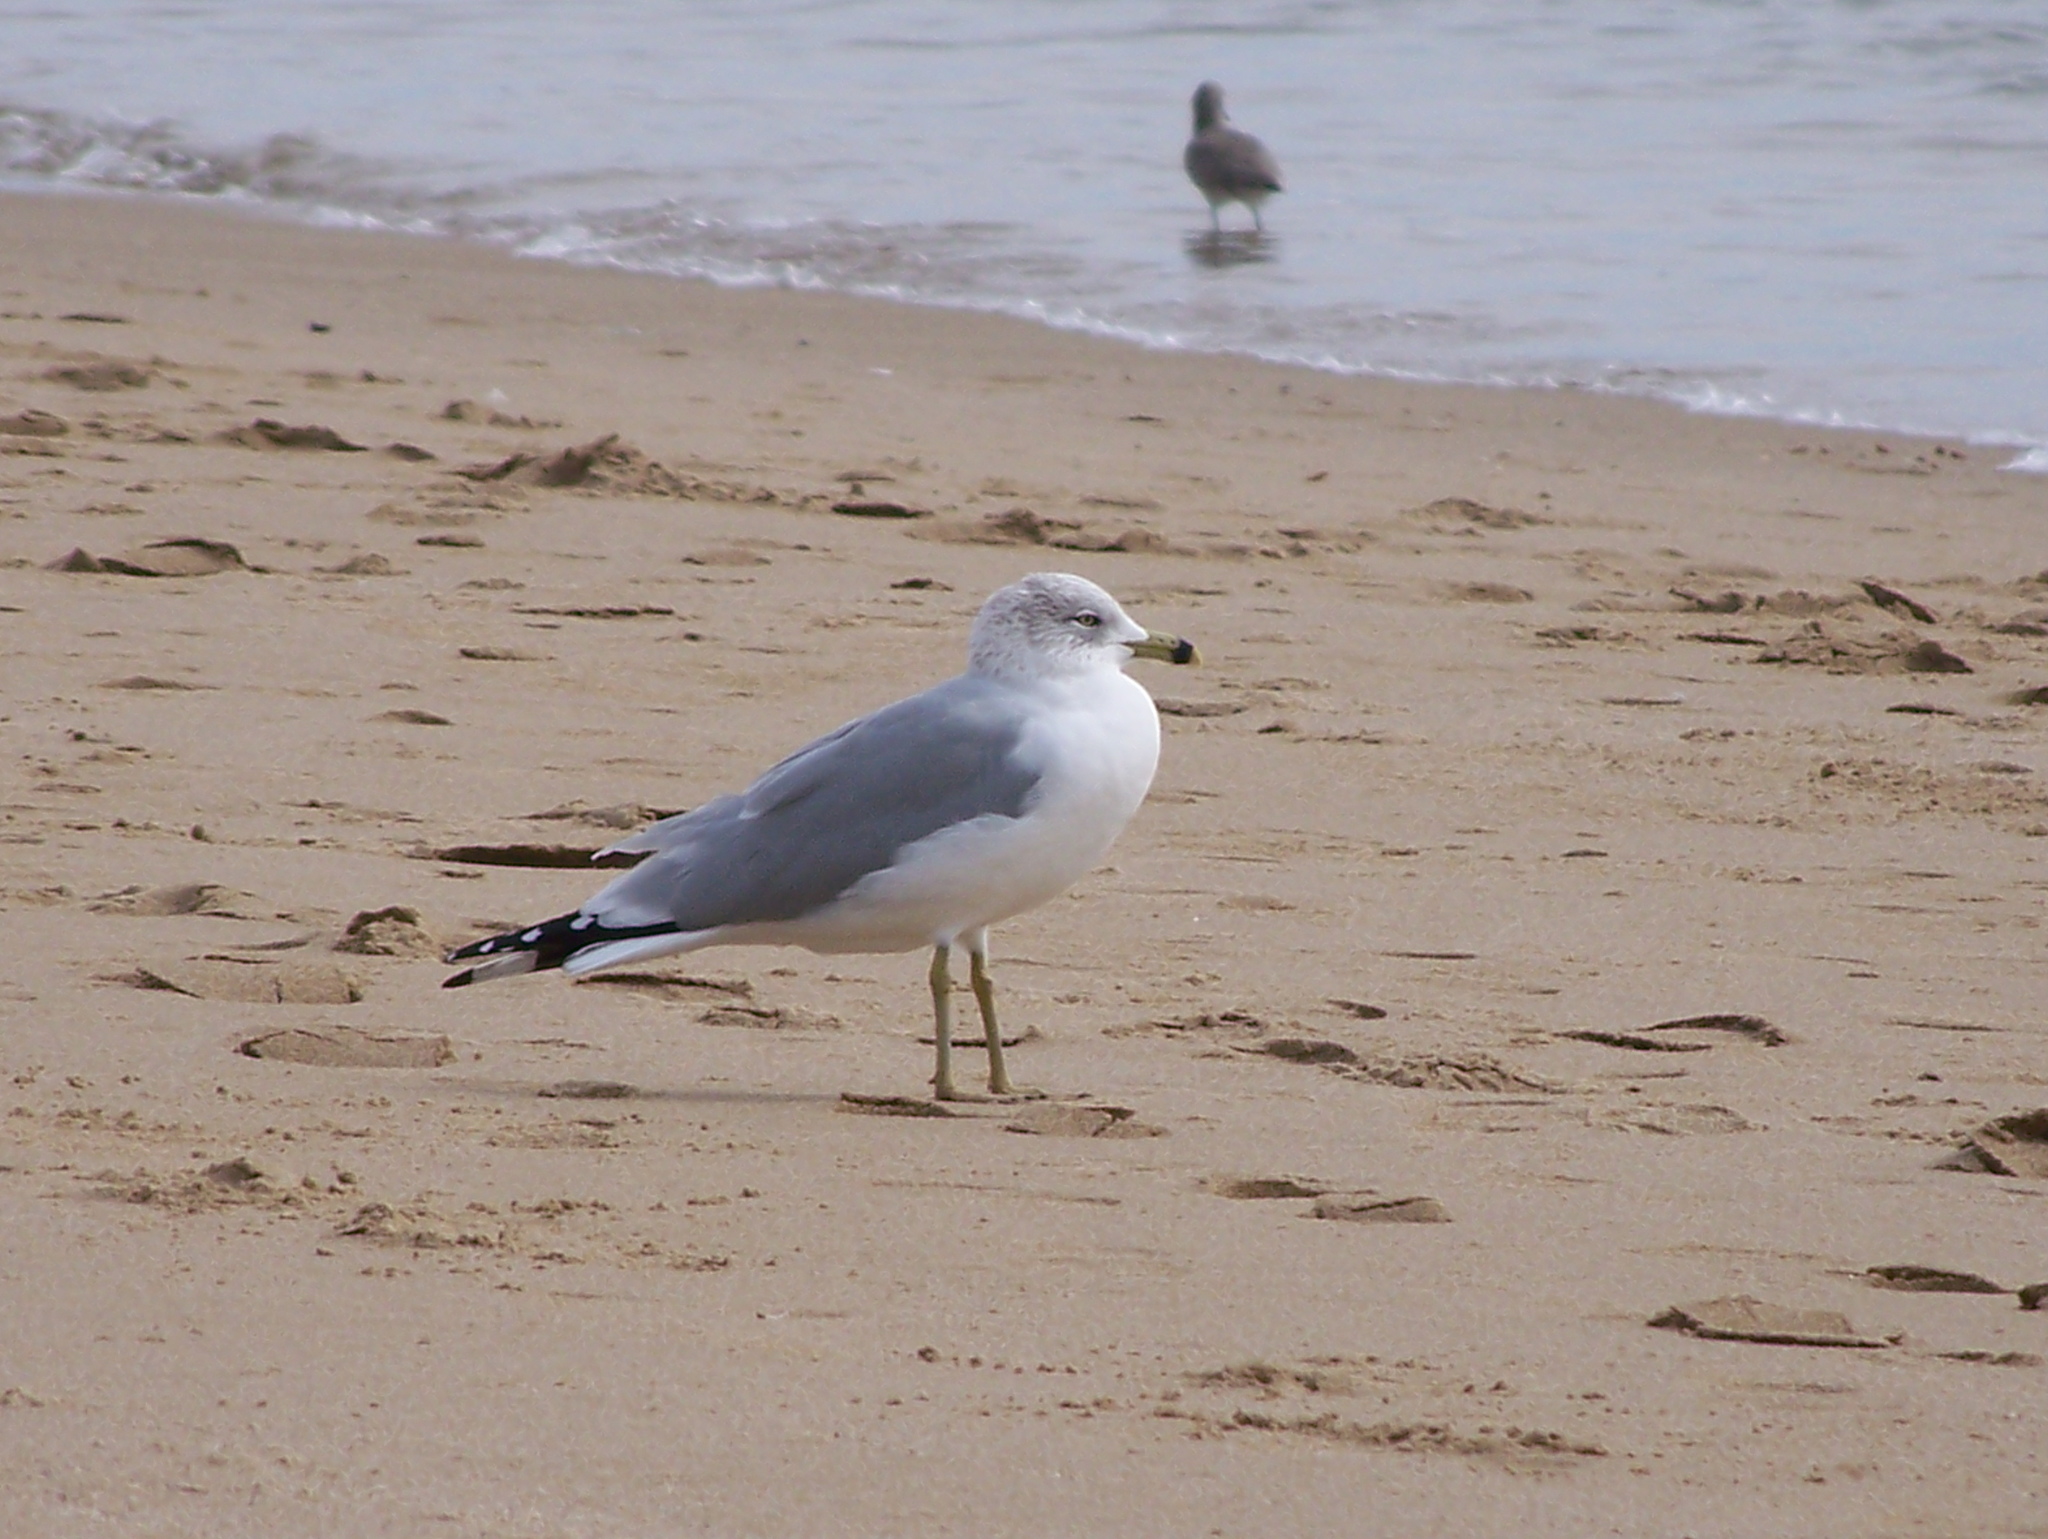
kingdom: Animalia
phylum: Chordata
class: Aves
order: Charadriiformes
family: Laridae
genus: Larus
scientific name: Larus delawarensis
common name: Ring-billed gull
